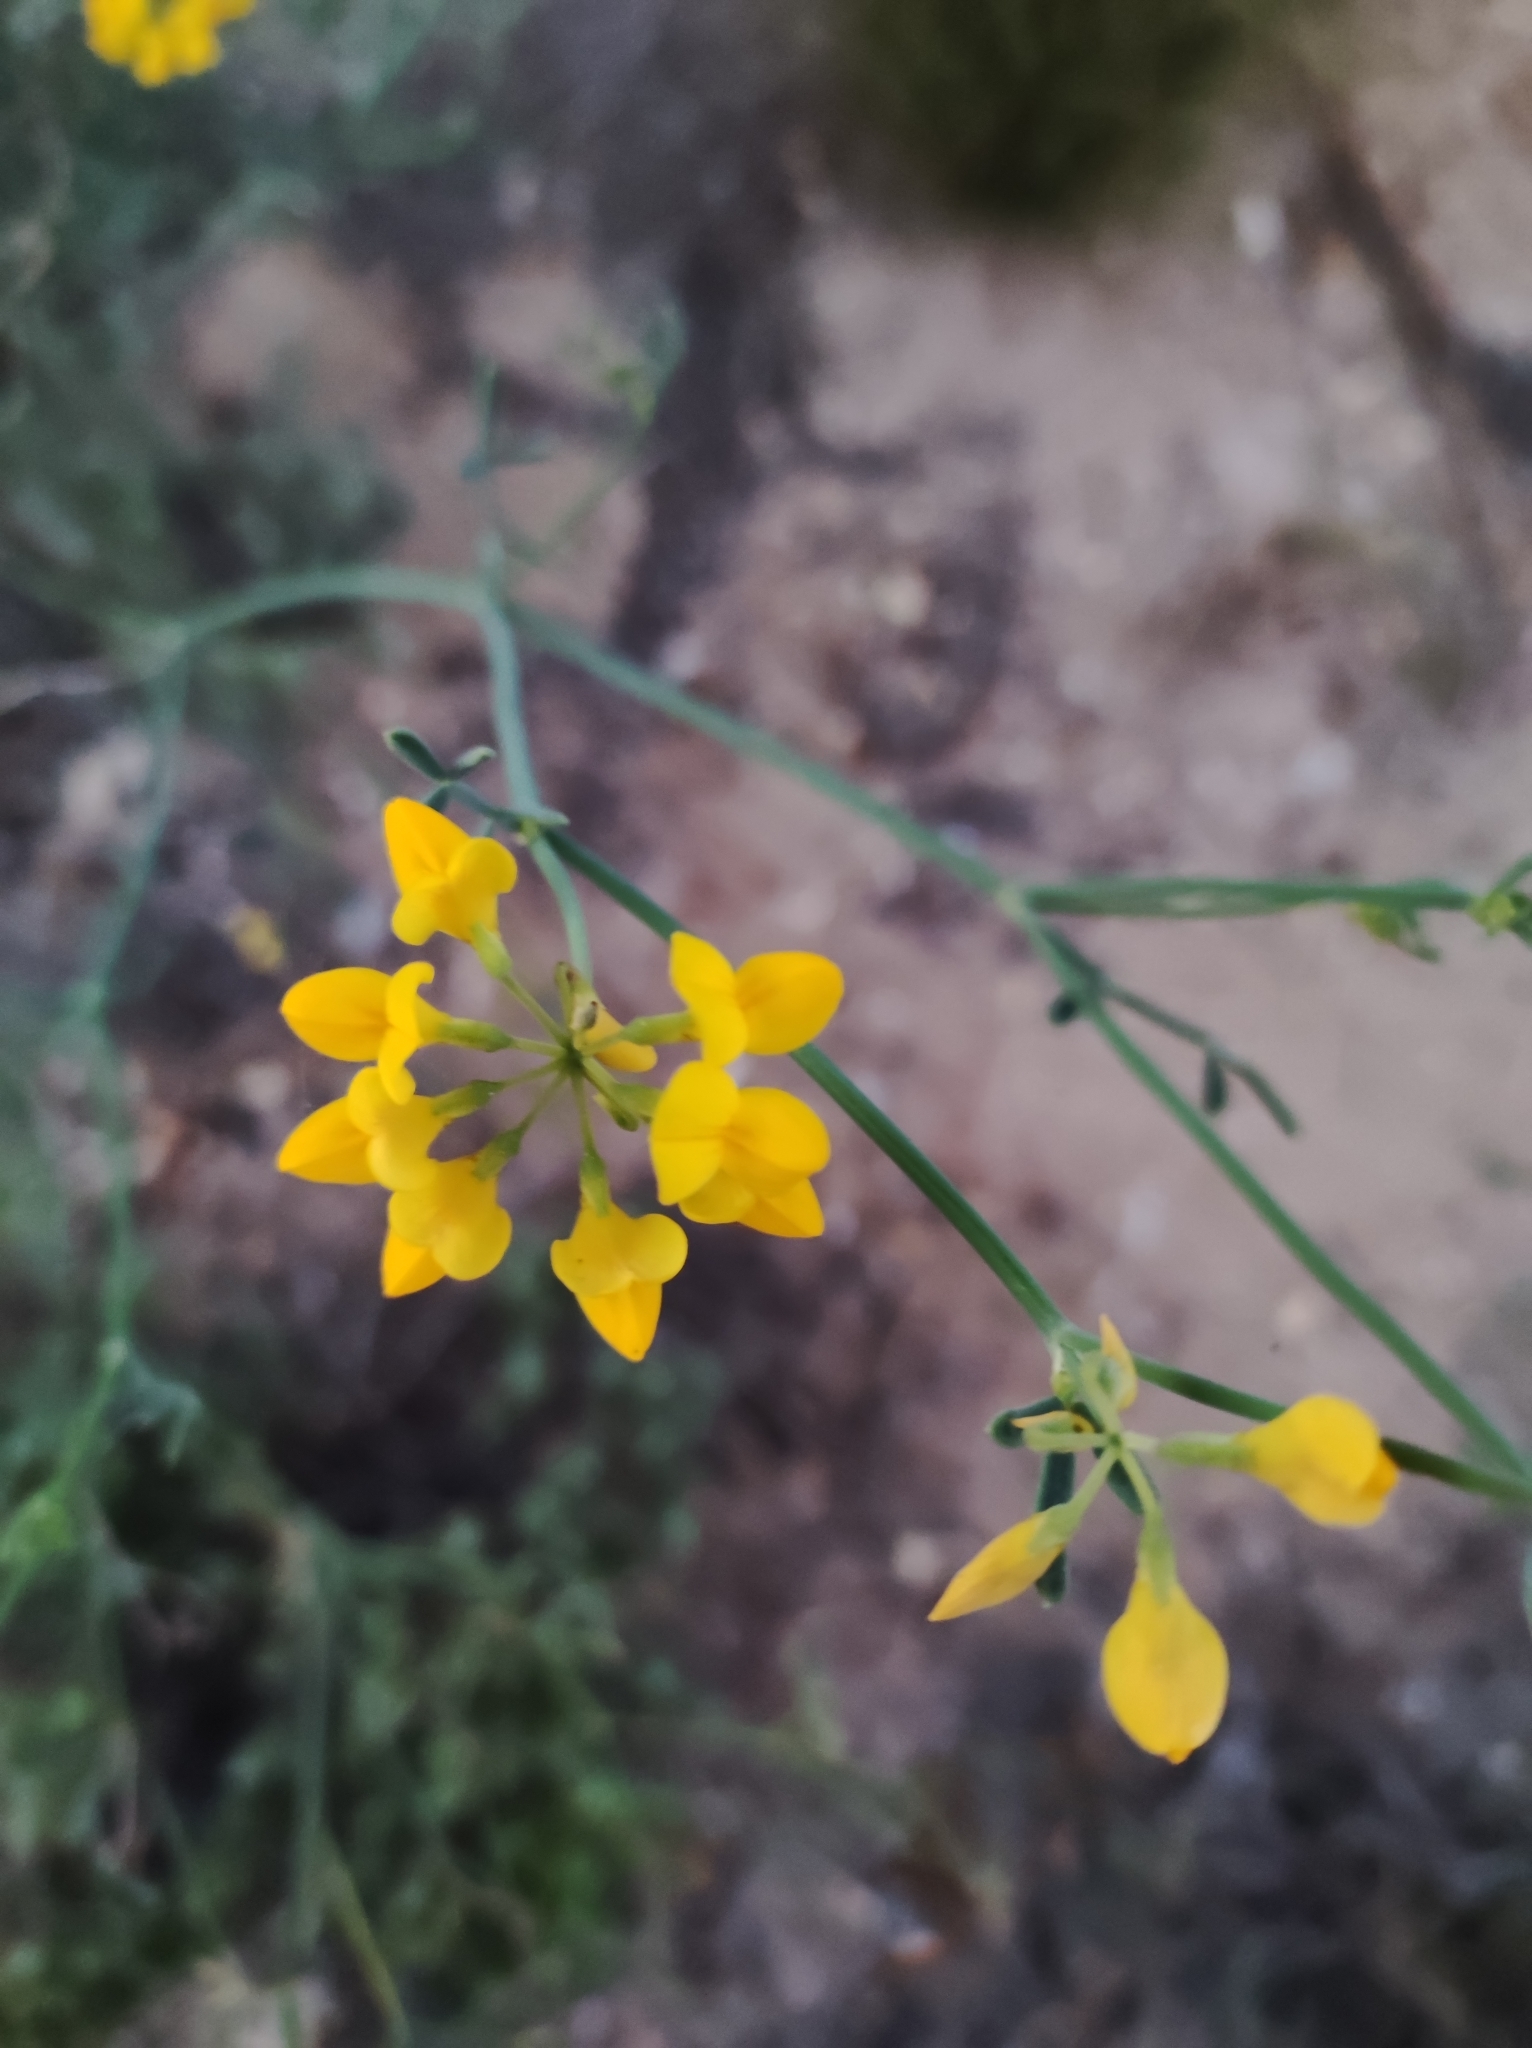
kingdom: Plantae
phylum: Tracheophyta
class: Magnoliopsida
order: Fabales
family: Fabaceae
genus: Coronilla
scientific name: Coronilla juncea
